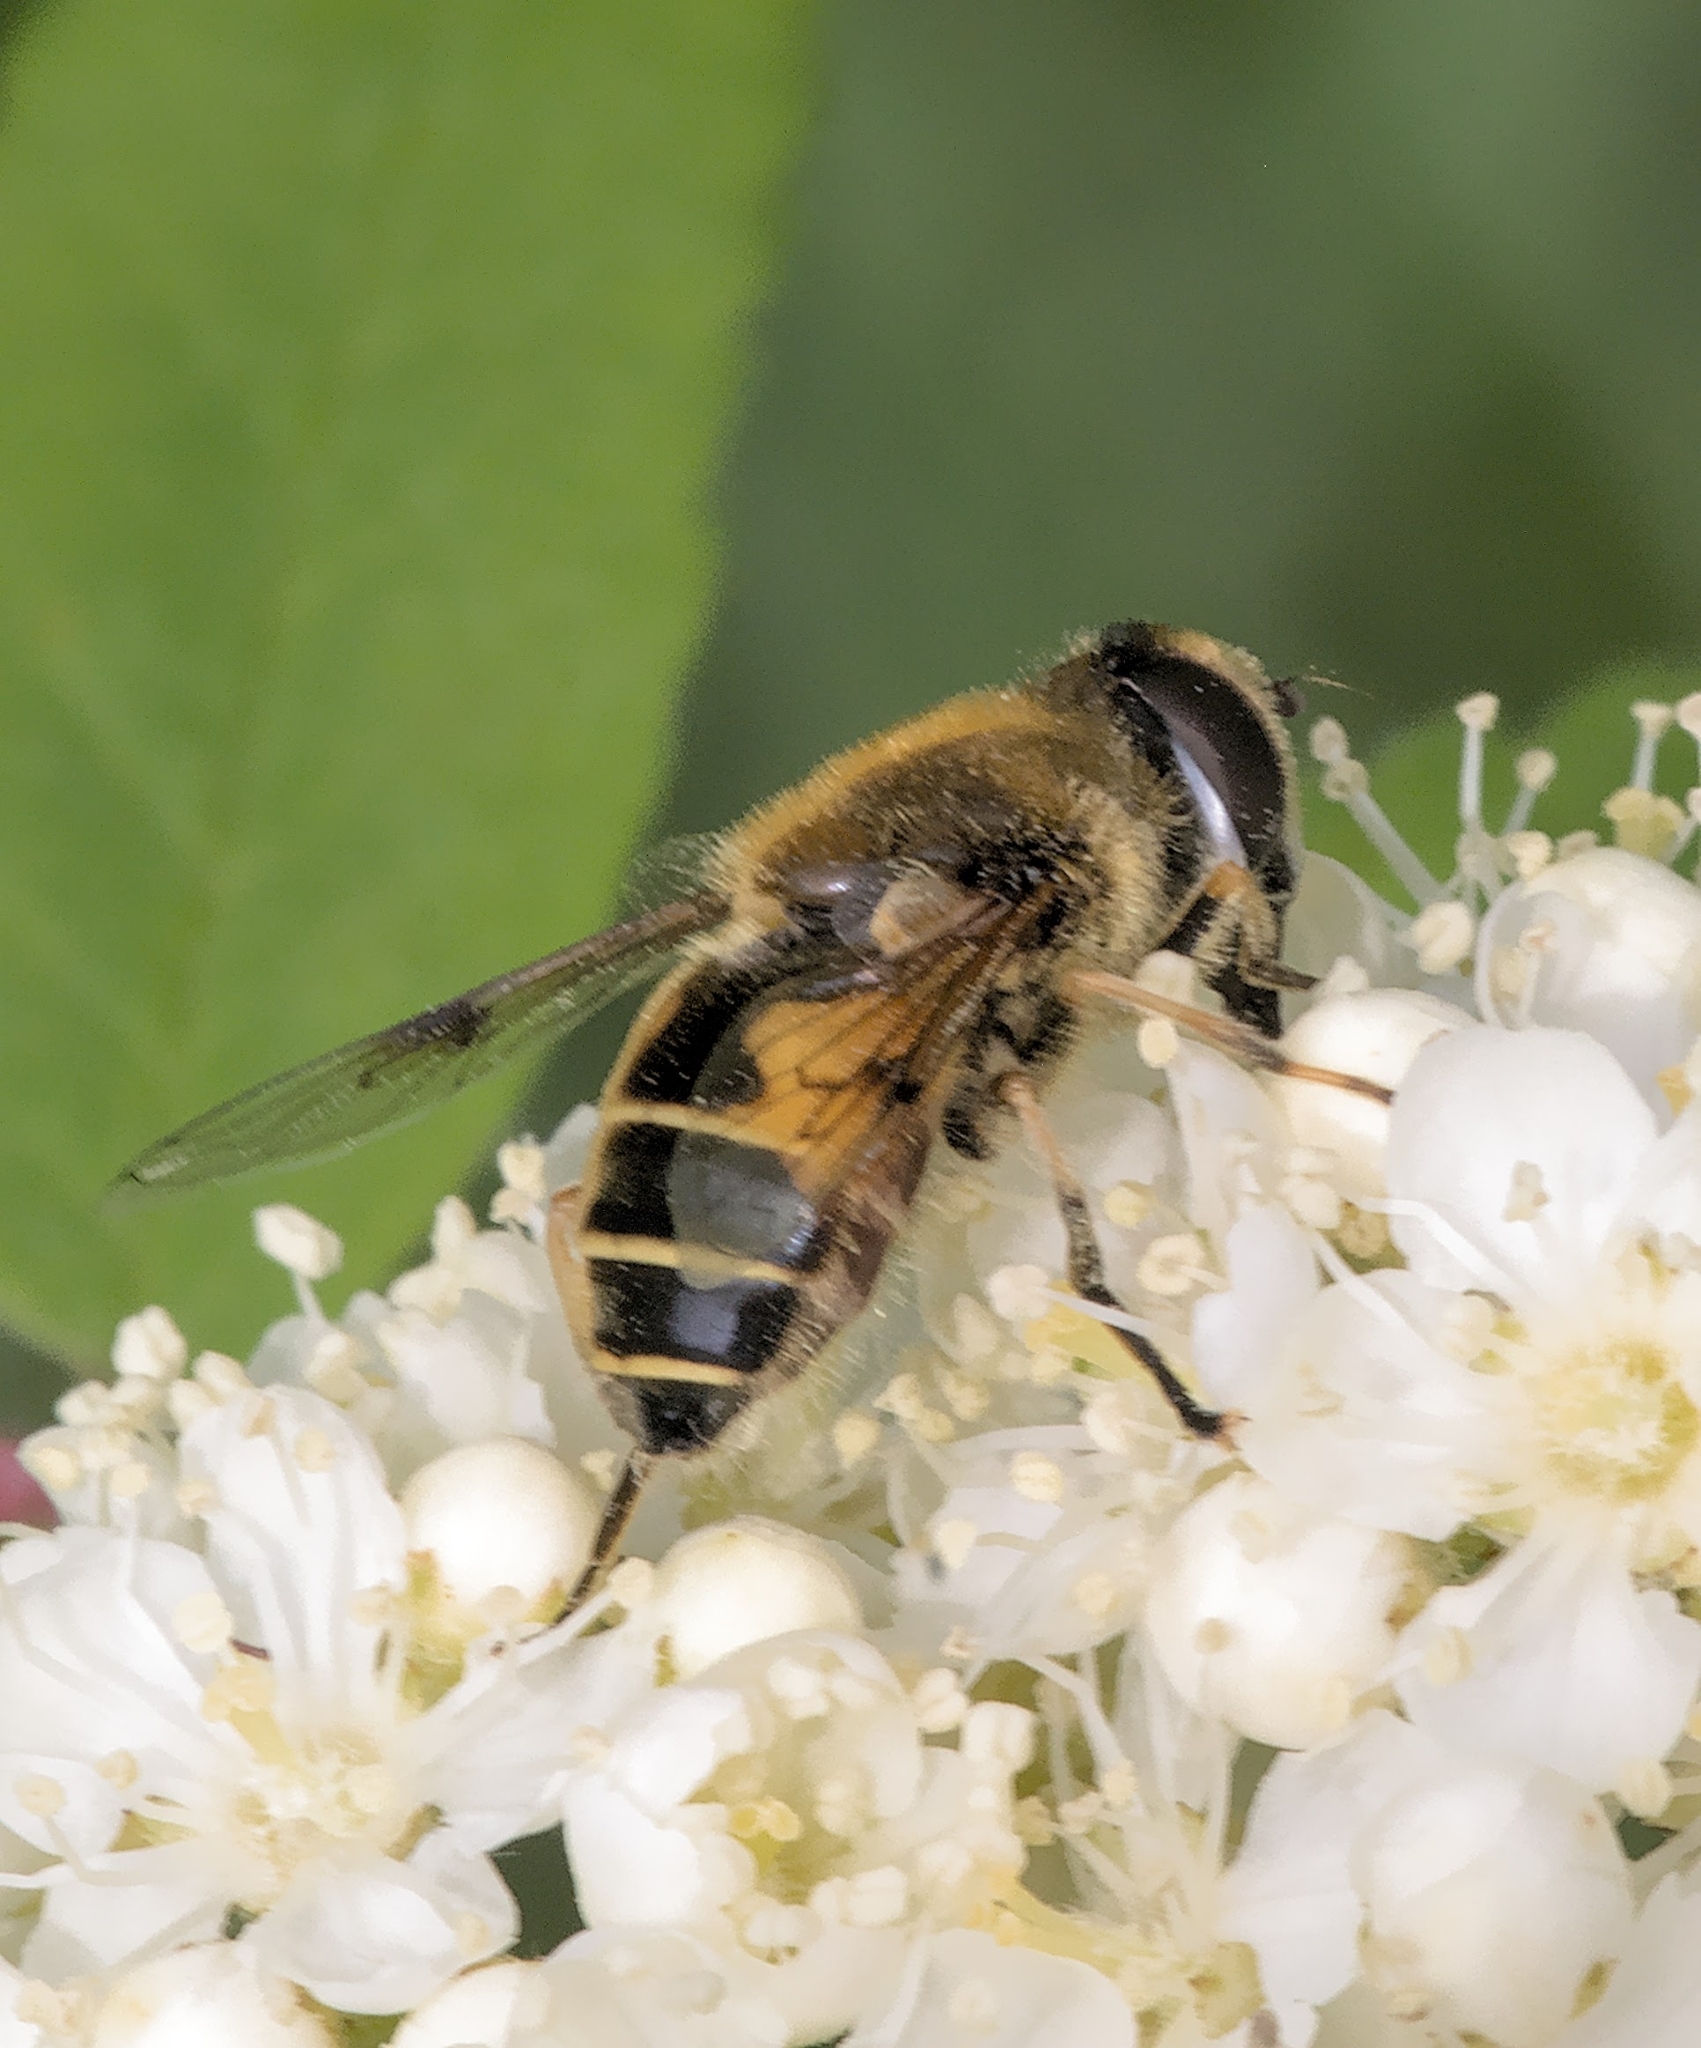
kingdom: Animalia
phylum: Arthropoda
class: Insecta
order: Diptera
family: Syrphidae
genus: Cheilosia
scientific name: Cheilosia morio
